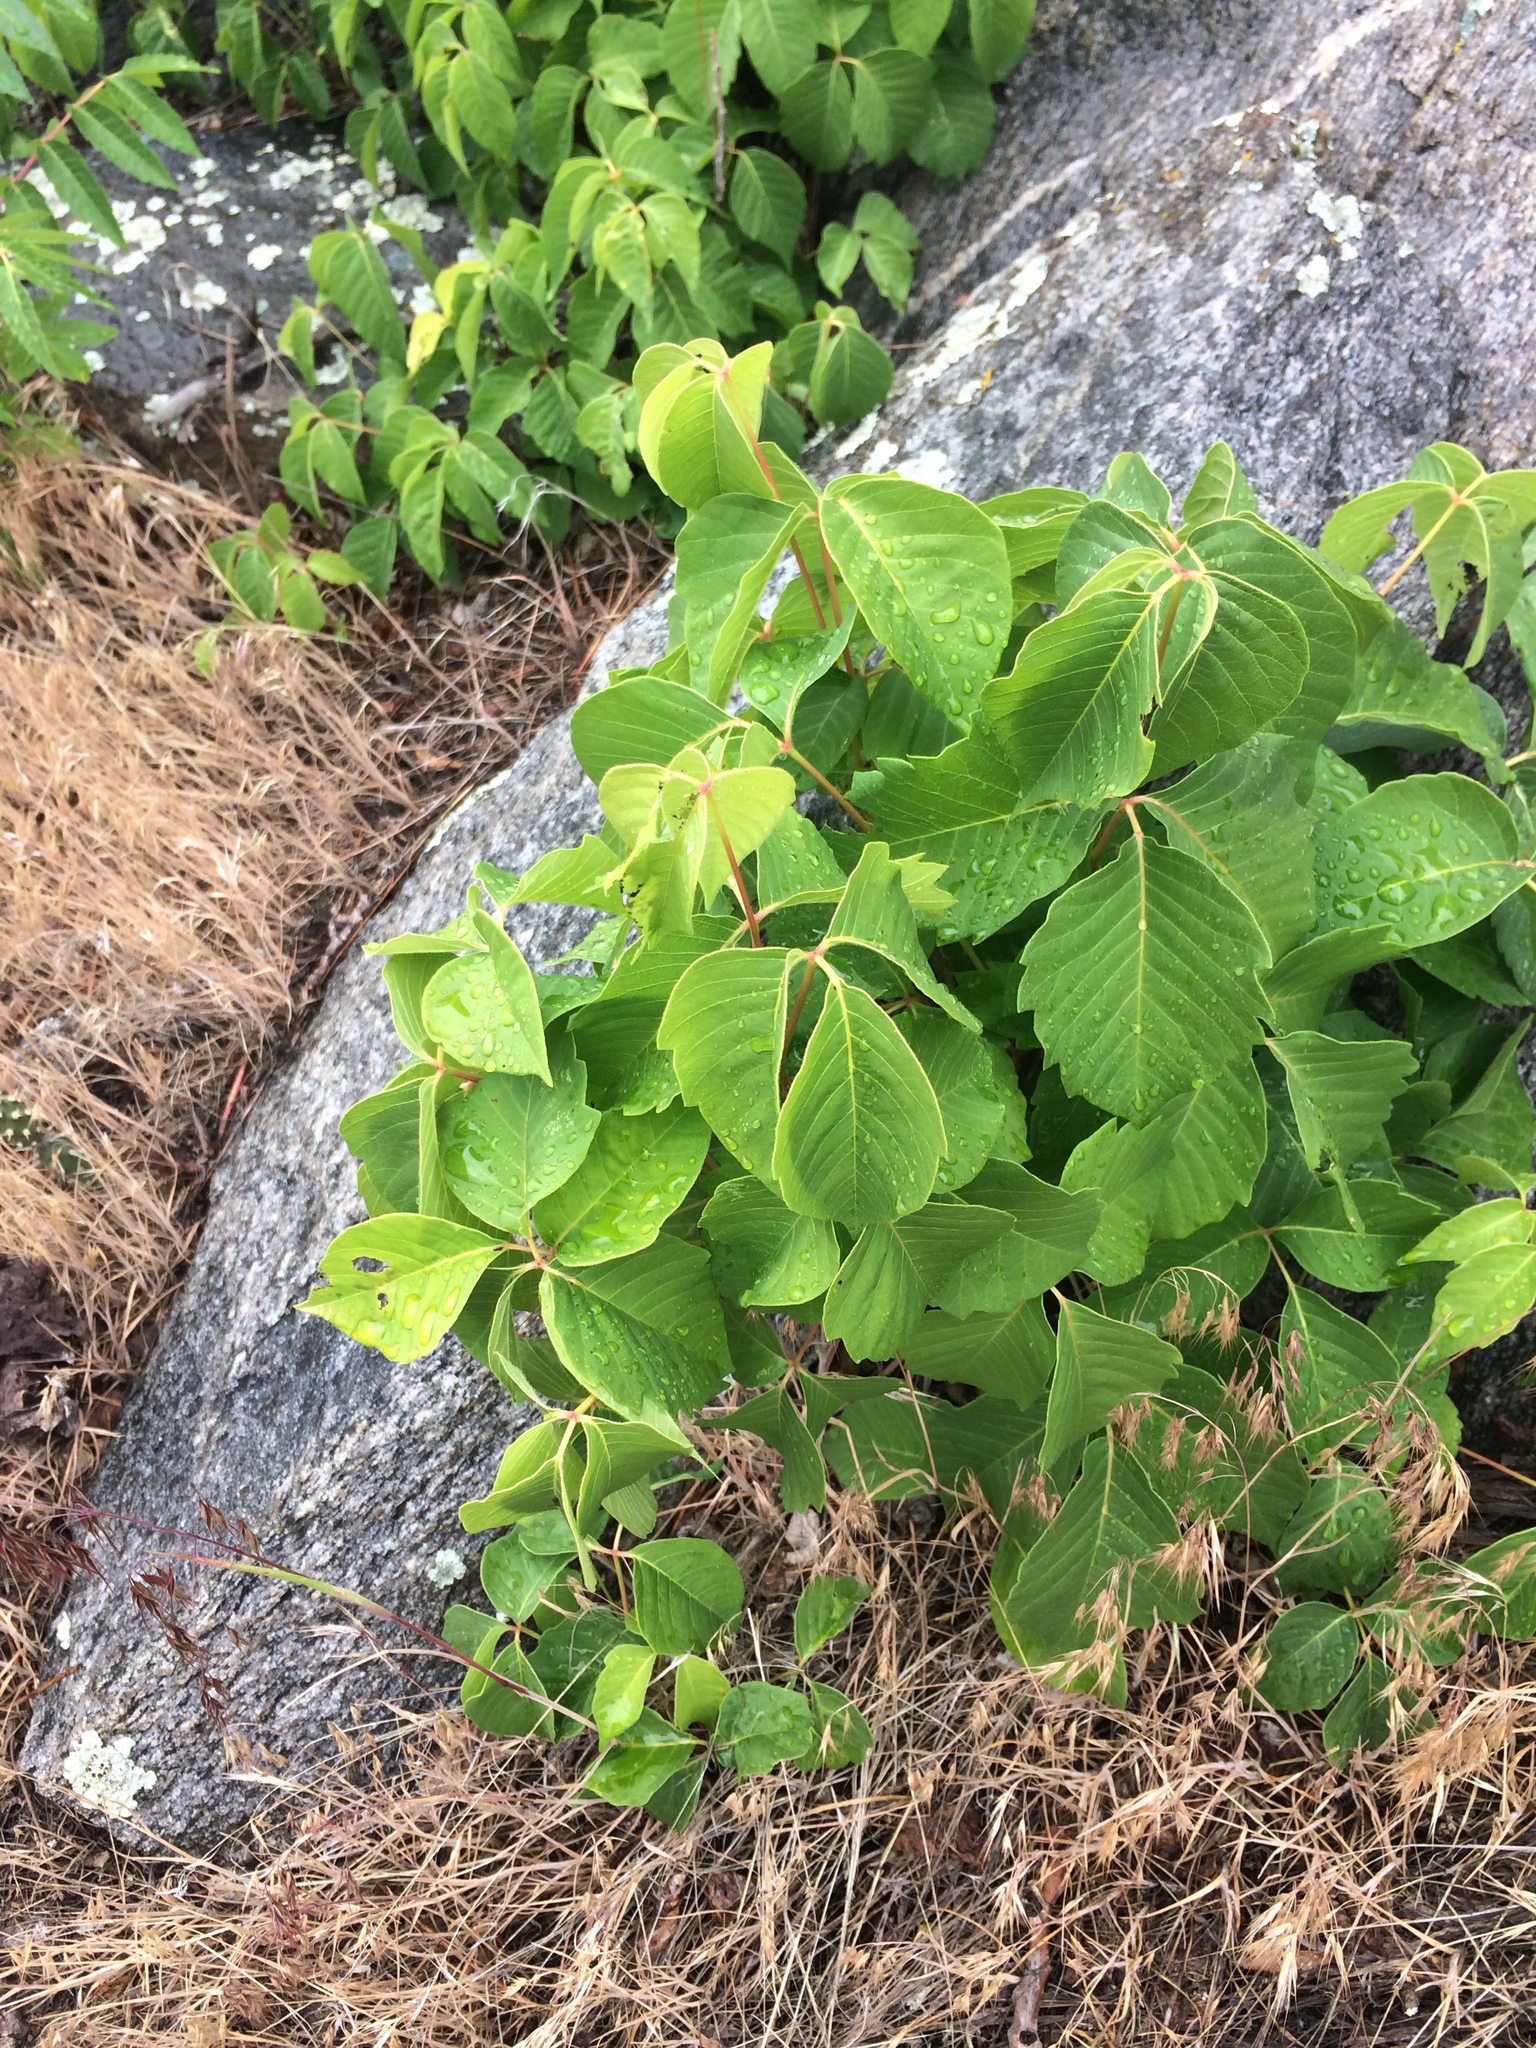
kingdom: Plantae
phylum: Tracheophyta
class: Magnoliopsida
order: Sapindales
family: Anacardiaceae
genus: Toxicodendron
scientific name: Toxicodendron rydbergii
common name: Rydberg's poison-ivy
